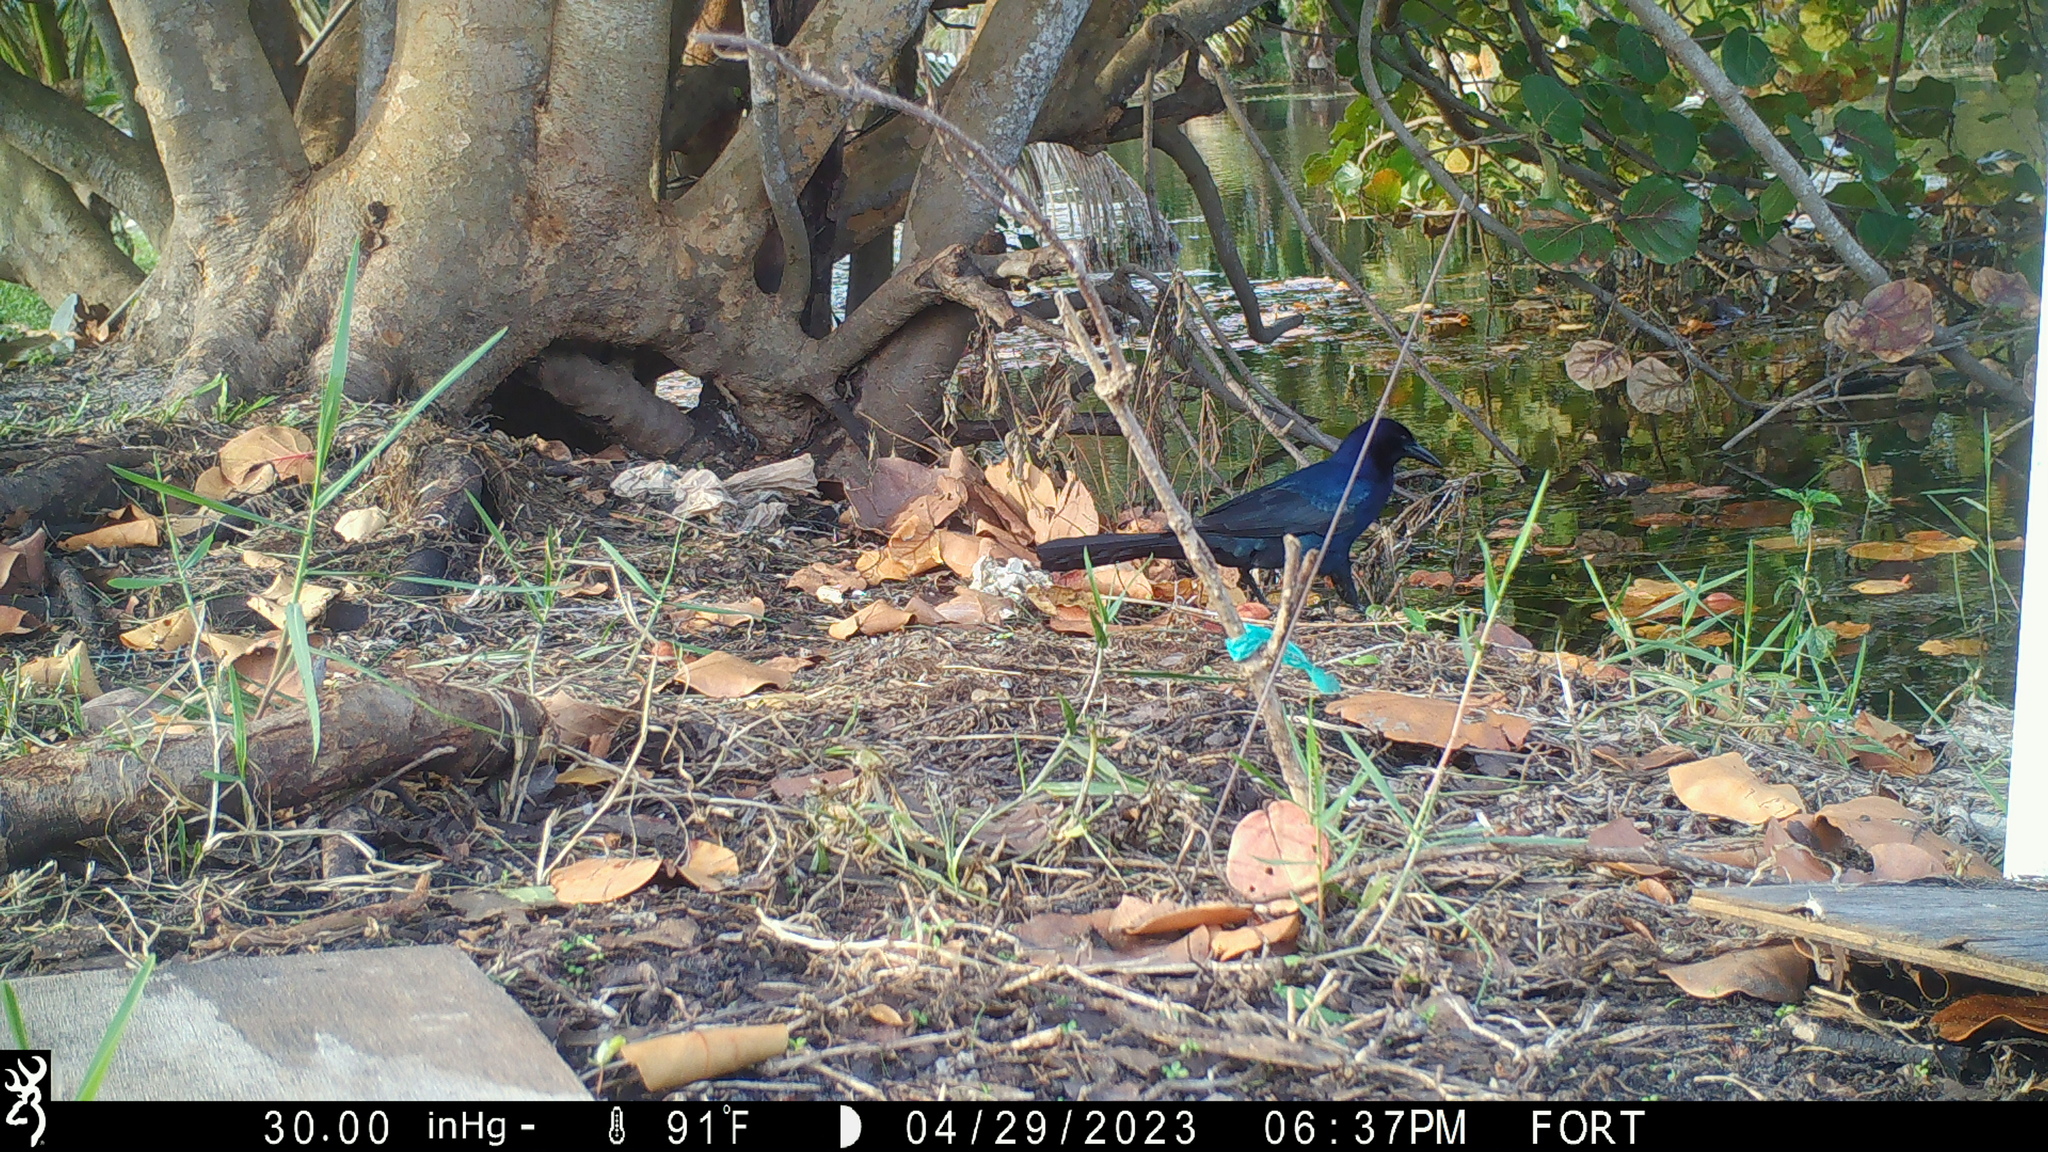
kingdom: Animalia
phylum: Chordata
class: Aves
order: Passeriformes
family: Icteridae
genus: Quiscalus
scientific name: Quiscalus major
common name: Boat-tailed grackle
